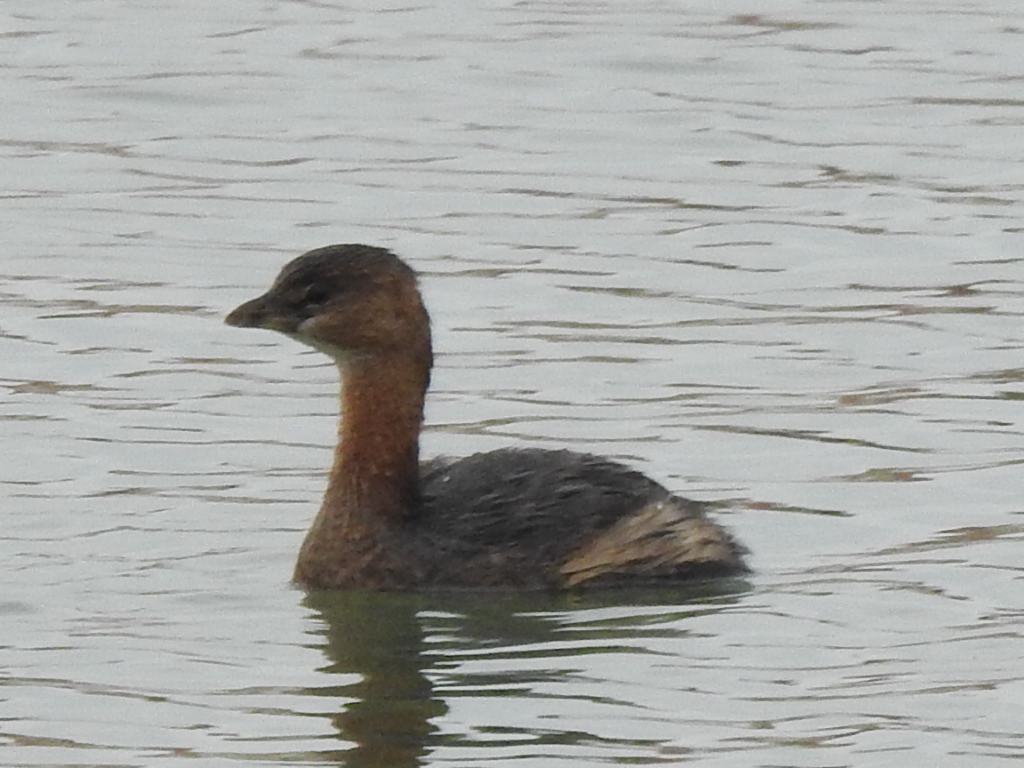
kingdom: Animalia
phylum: Chordata
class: Aves
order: Podicipediformes
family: Podicipedidae
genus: Podilymbus
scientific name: Podilymbus podiceps
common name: Pied-billed grebe
